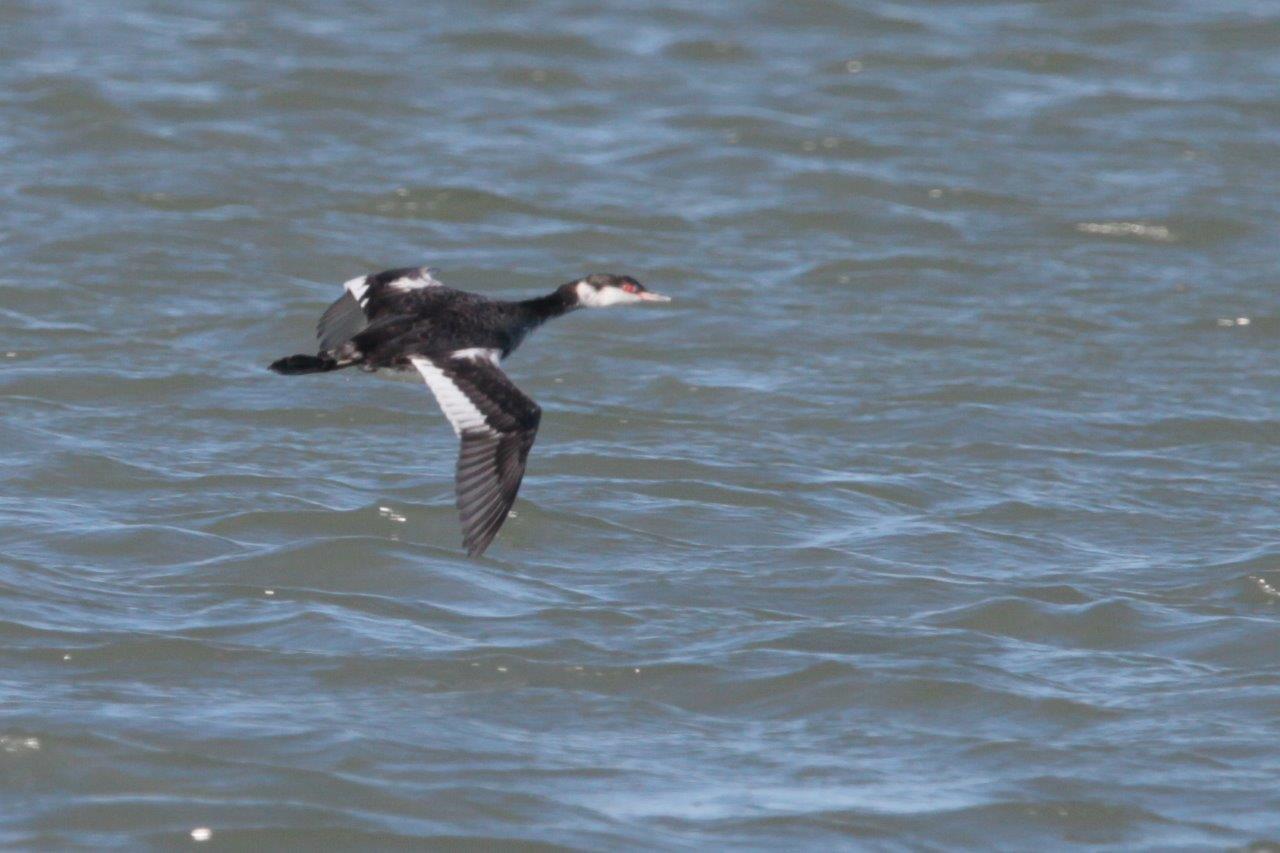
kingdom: Animalia
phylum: Chordata
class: Aves
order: Podicipediformes
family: Podicipedidae
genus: Podiceps
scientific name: Podiceps auritus
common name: Horned grebe
